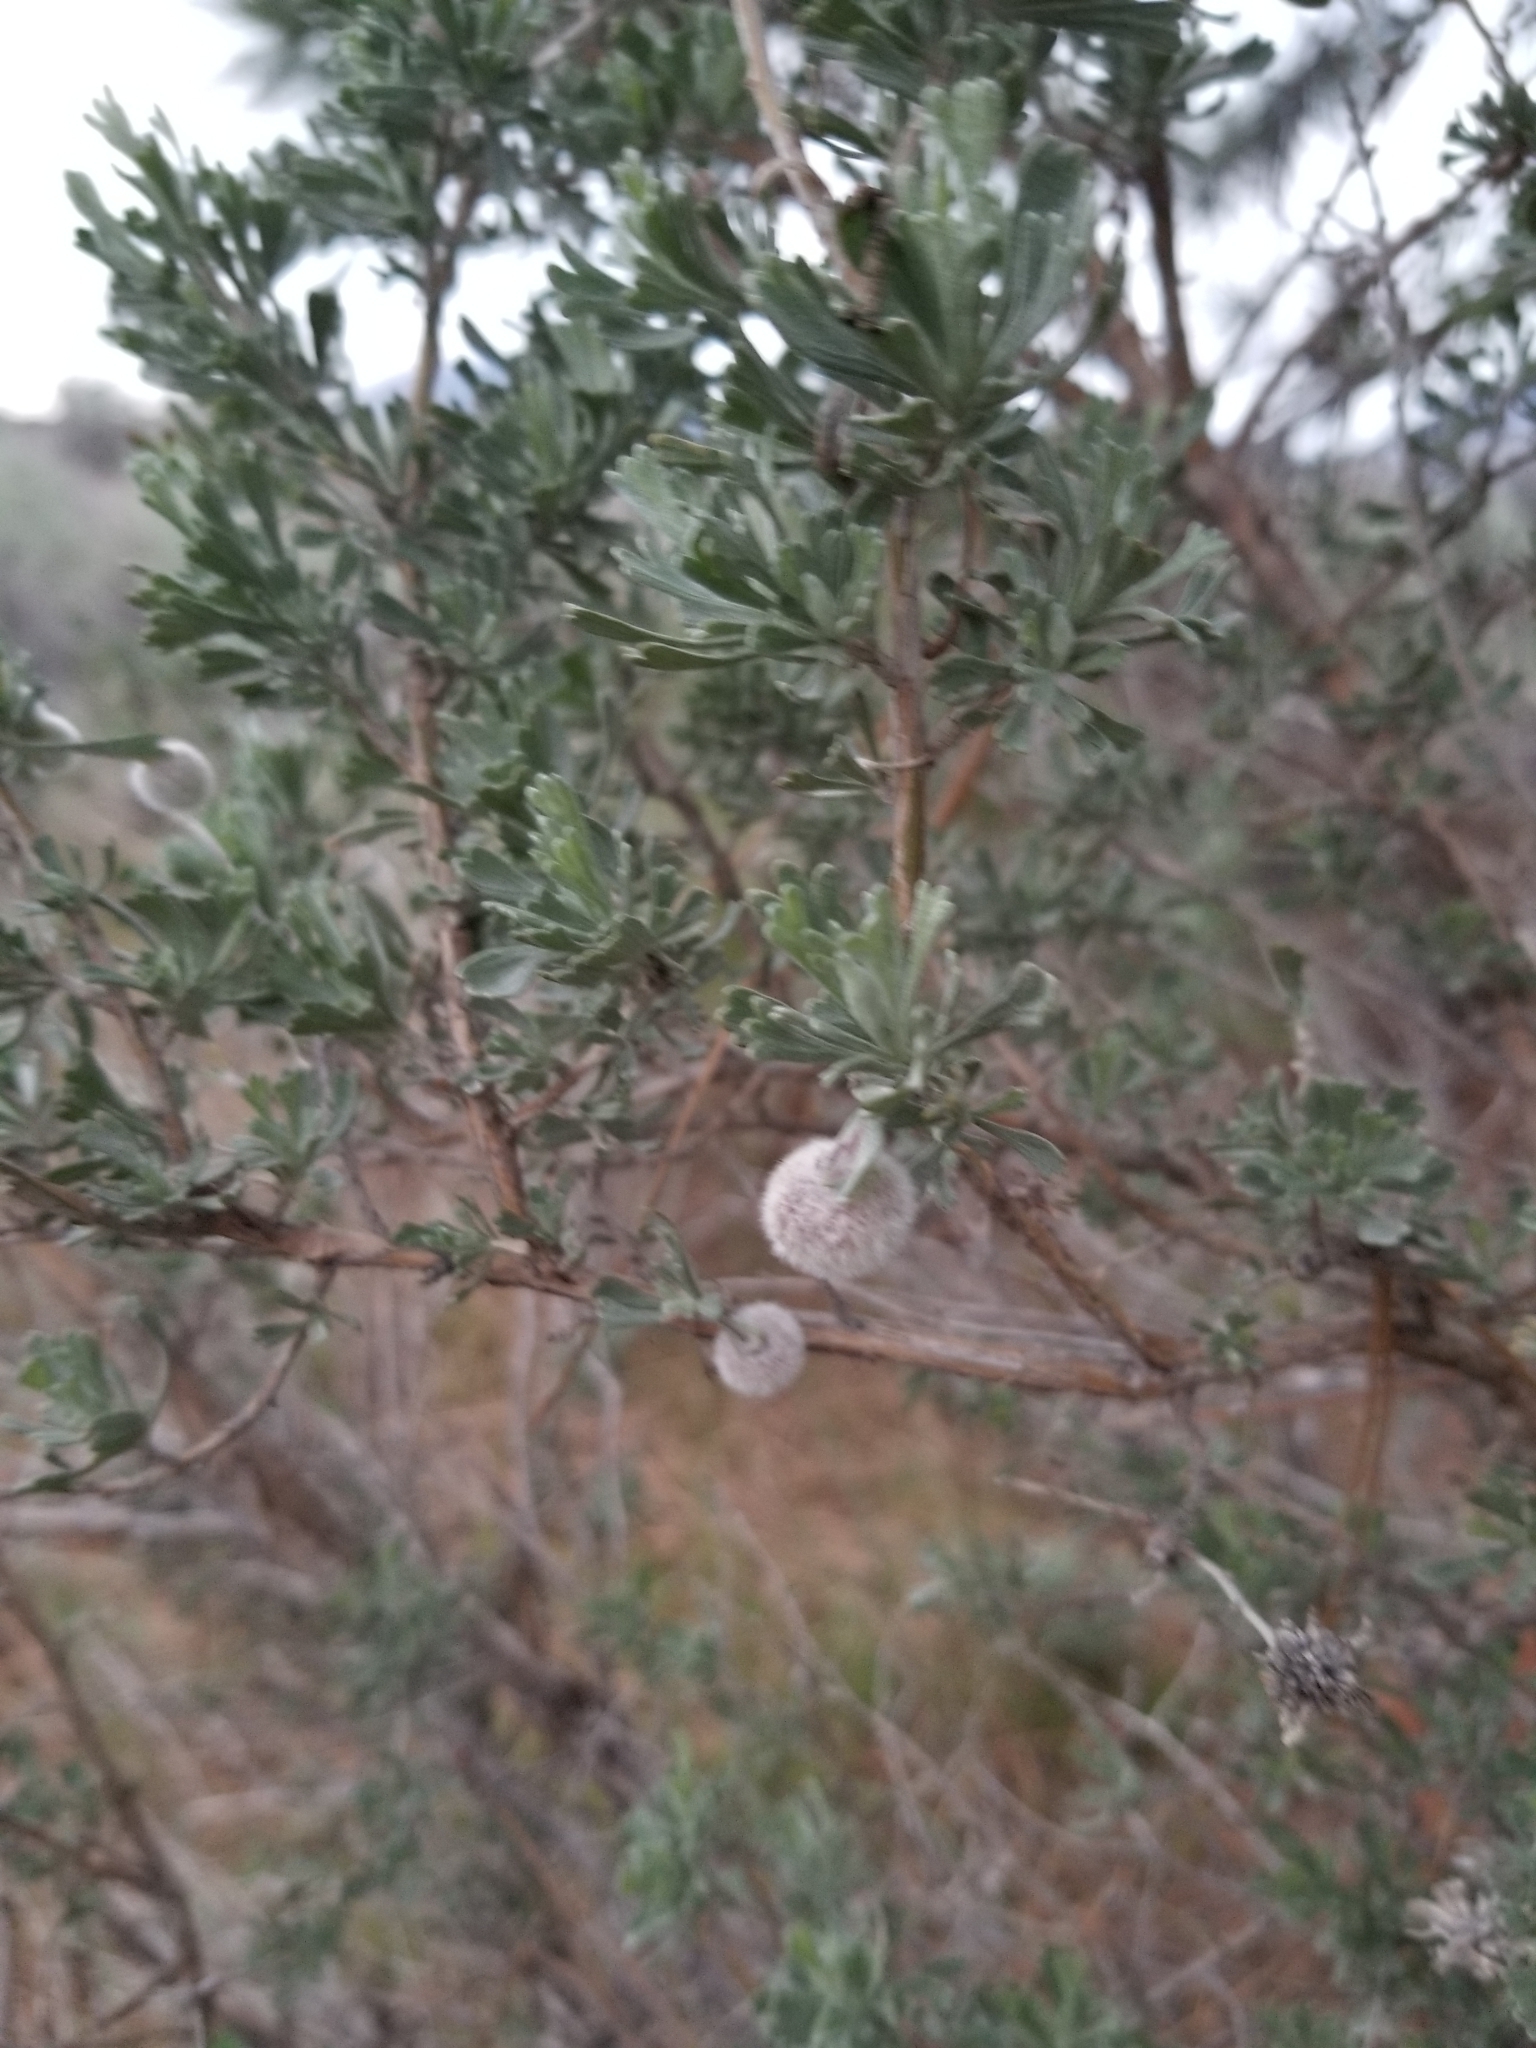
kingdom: Animalia
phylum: Arthropoda
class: Insecta
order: Diptera
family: Cecidomyiidae
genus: Rhopalomyia
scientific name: Rhopalomyia hirtipomum
